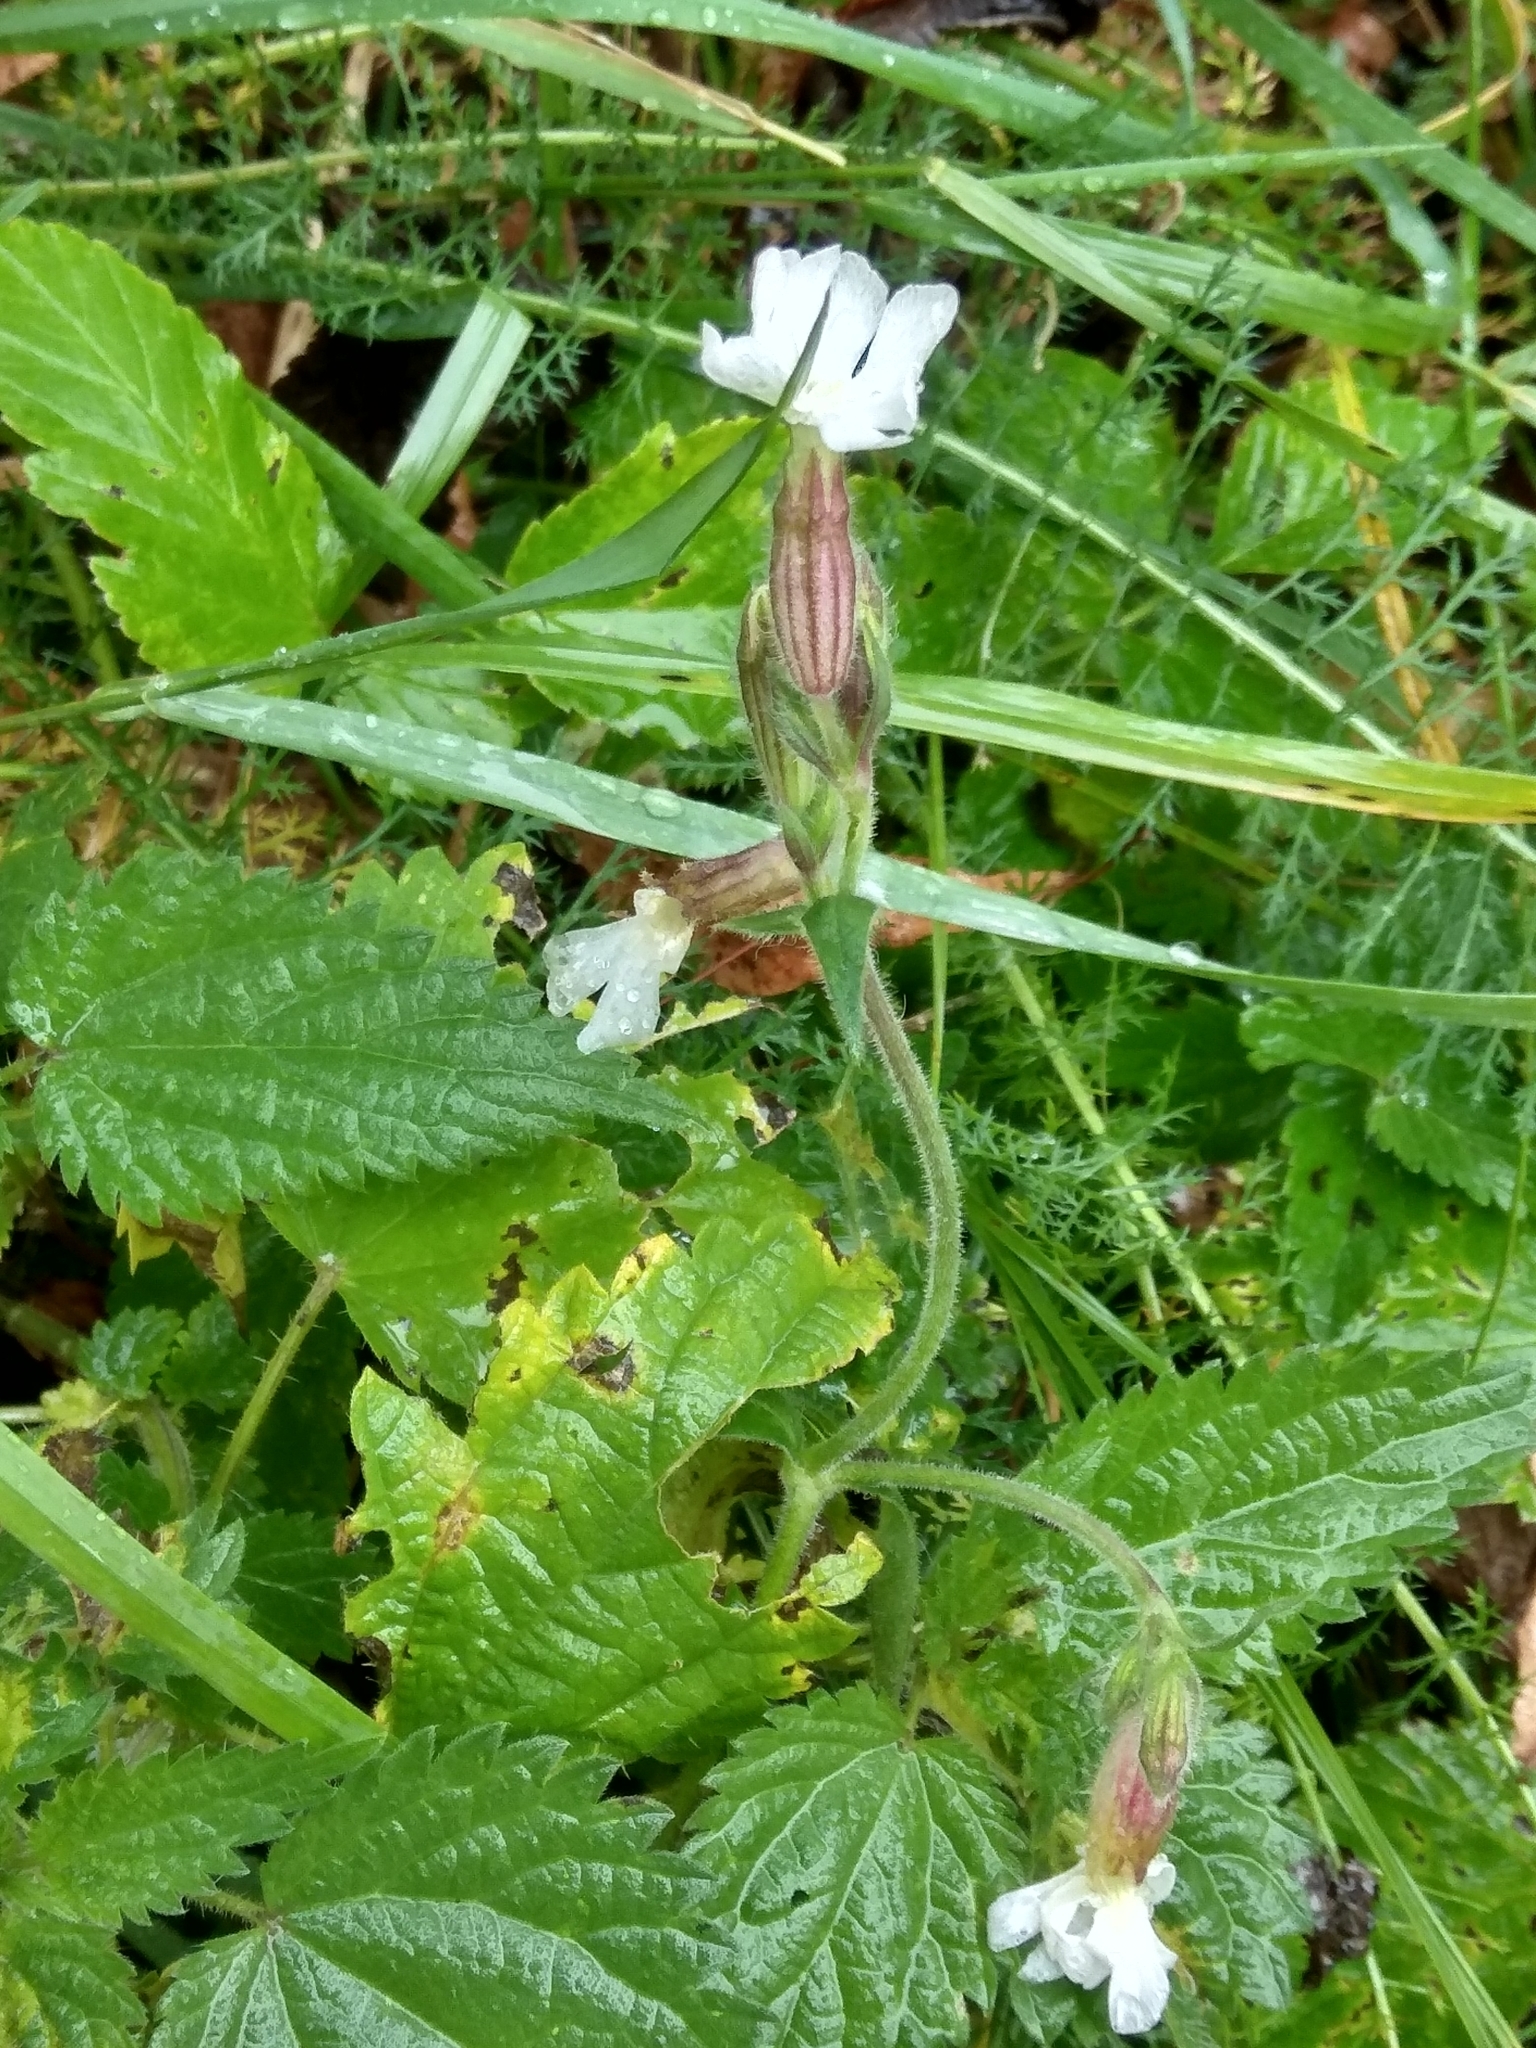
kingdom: Plantae
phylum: Tracheophyta
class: Magnoliopsida
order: Caryophyllales
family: Caryophyllaceae
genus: Silene
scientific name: Silene latifolia
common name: White campion
